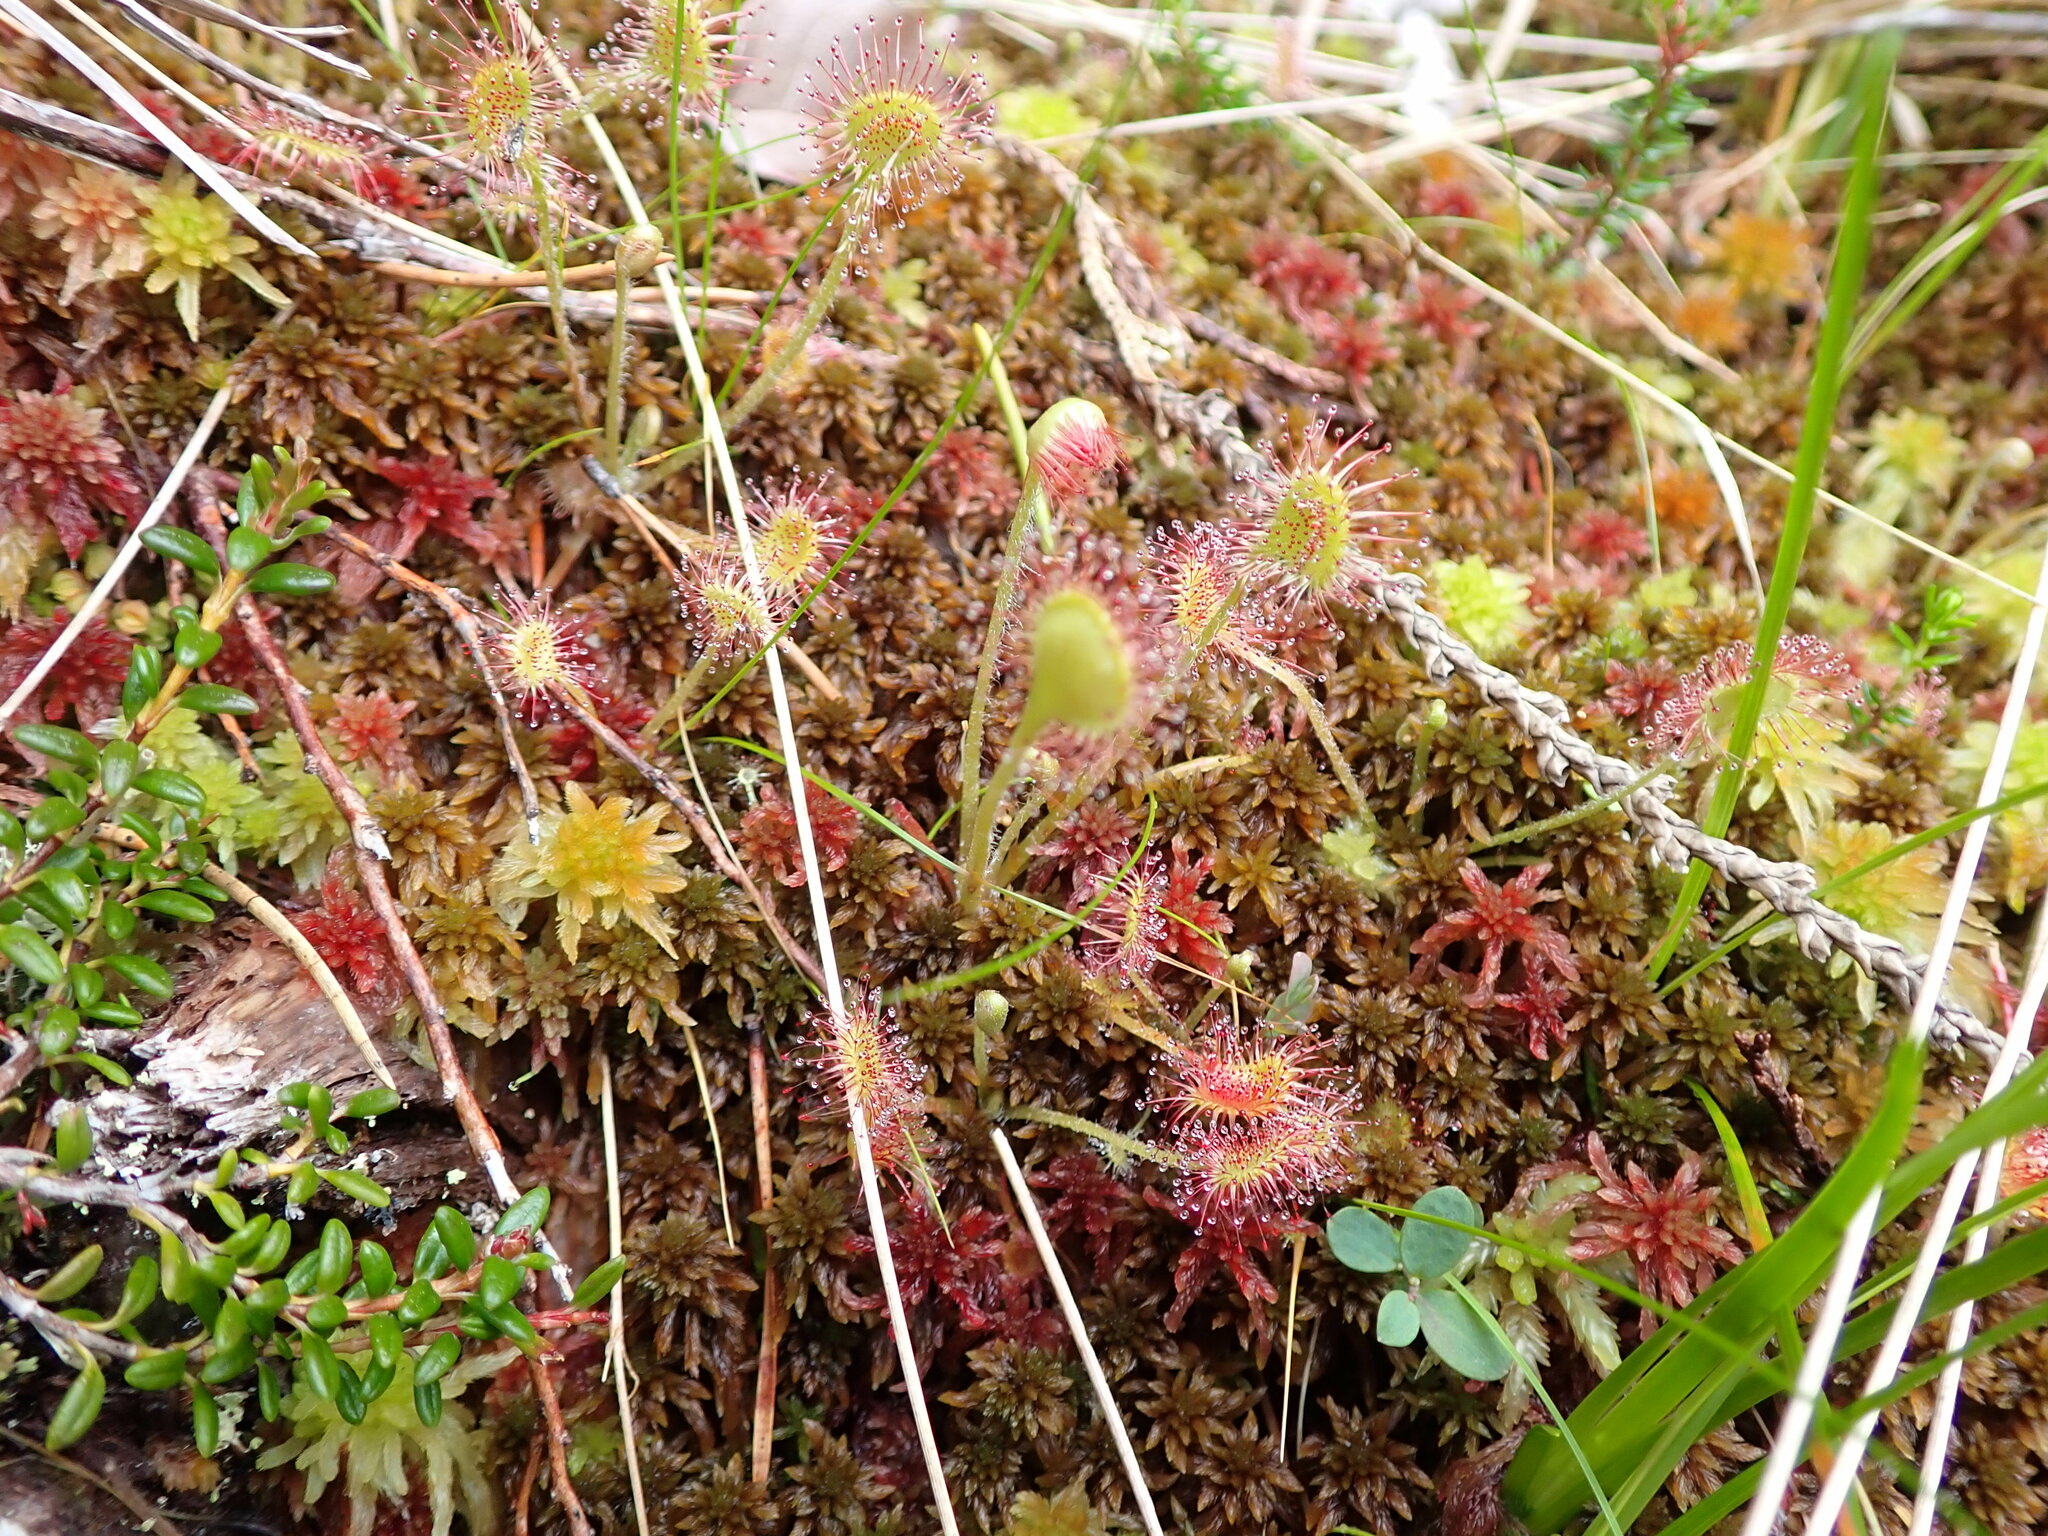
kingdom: Plantae
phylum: Tracheophyta
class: Magnoliopsida
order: Caryophyllales
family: Droseraceae
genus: Drosera
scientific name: Drosera rotundifolia
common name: Round-leaved sundew
